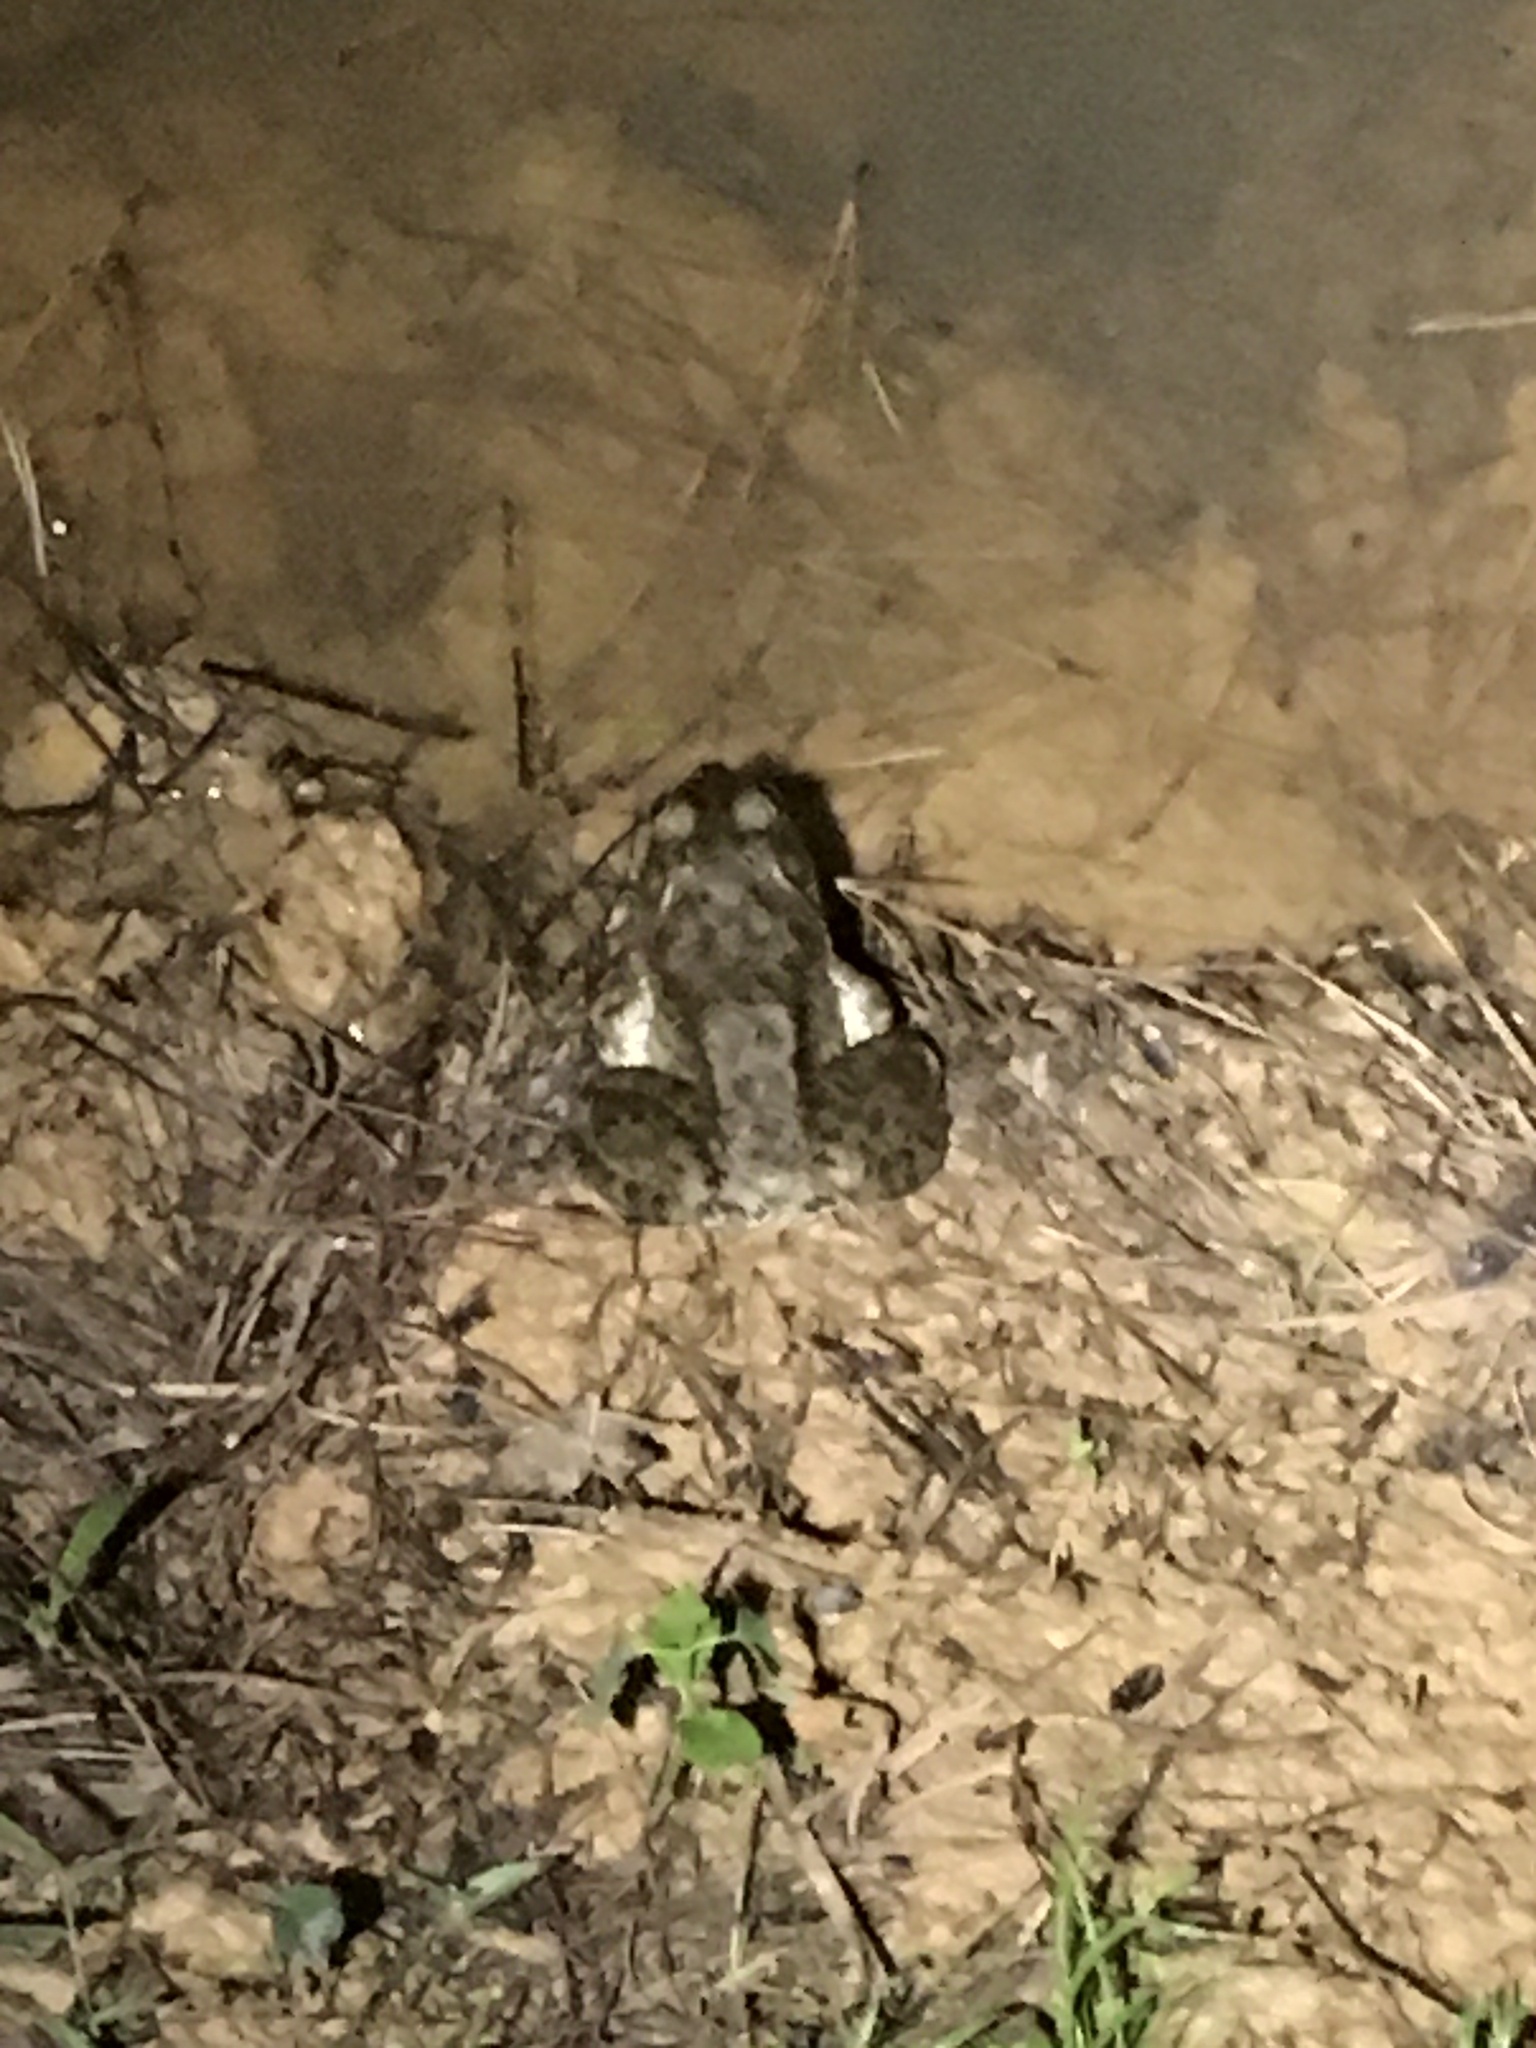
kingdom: Animalia
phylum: Chordata
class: Amphibia
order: Anura
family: Ranidae
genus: Lithobates
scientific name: Lithobates catesbeianus
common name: American bullfrog
